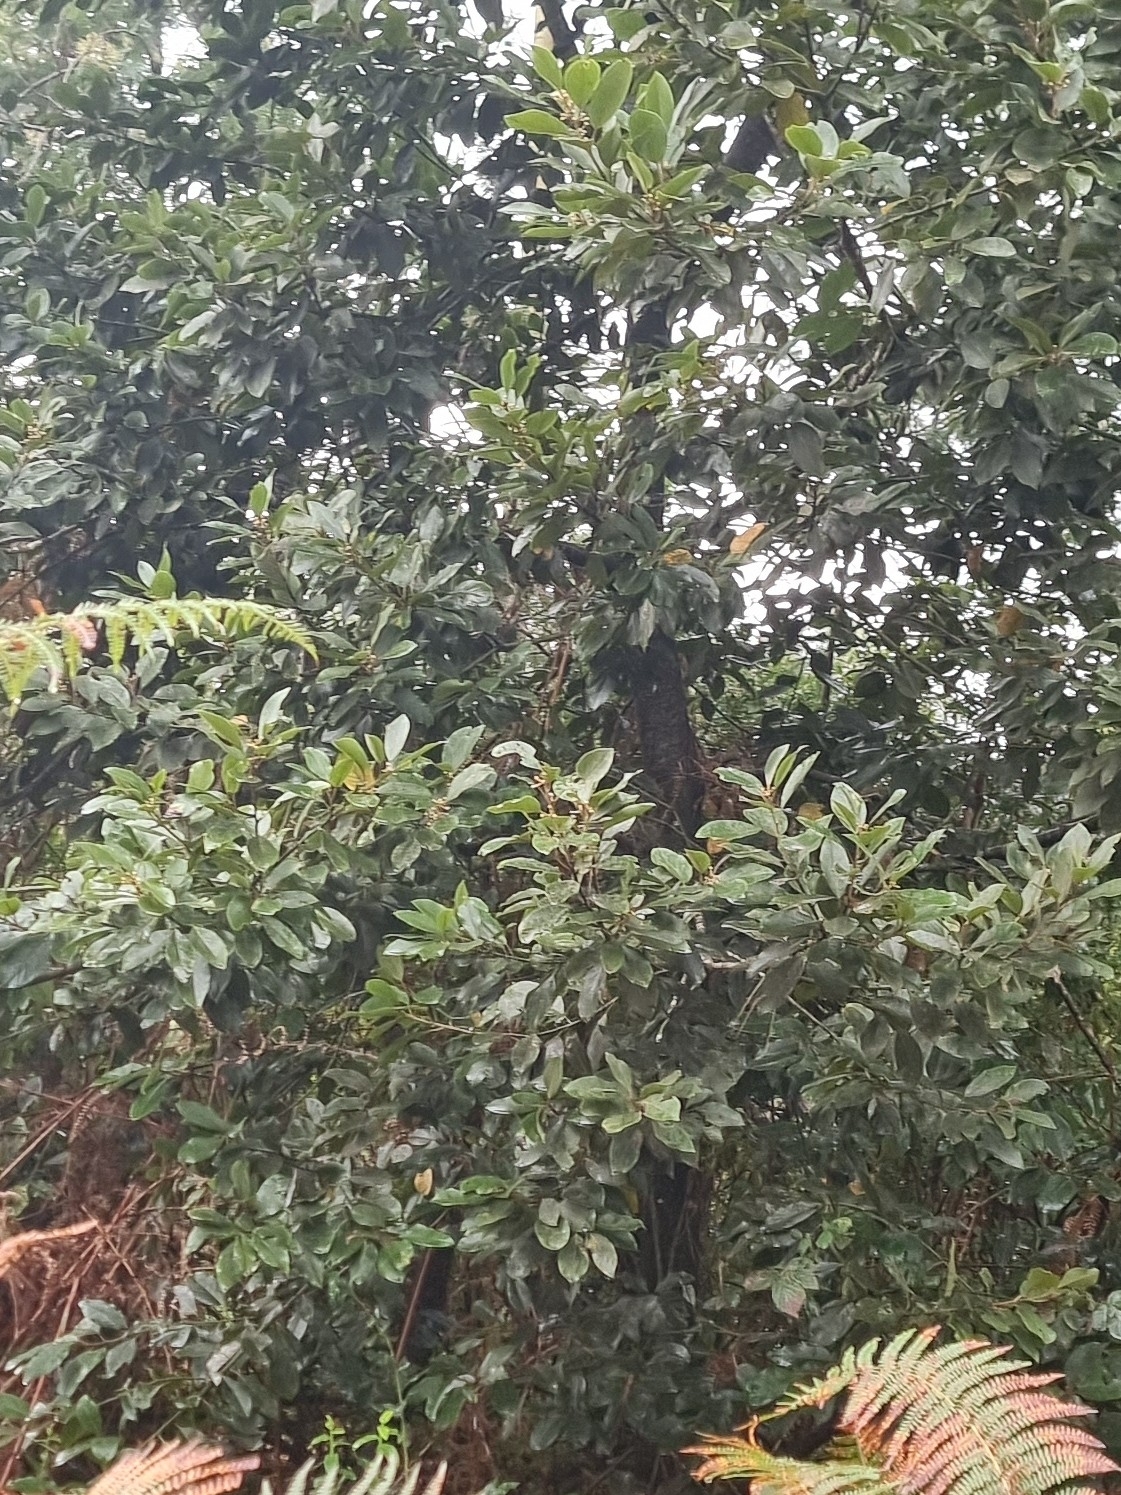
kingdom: Plantae
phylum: Tracheophyta
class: Magnoliopsida
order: Laurales
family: Lauraceae
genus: Laurus
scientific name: Laurus novocanariensis
